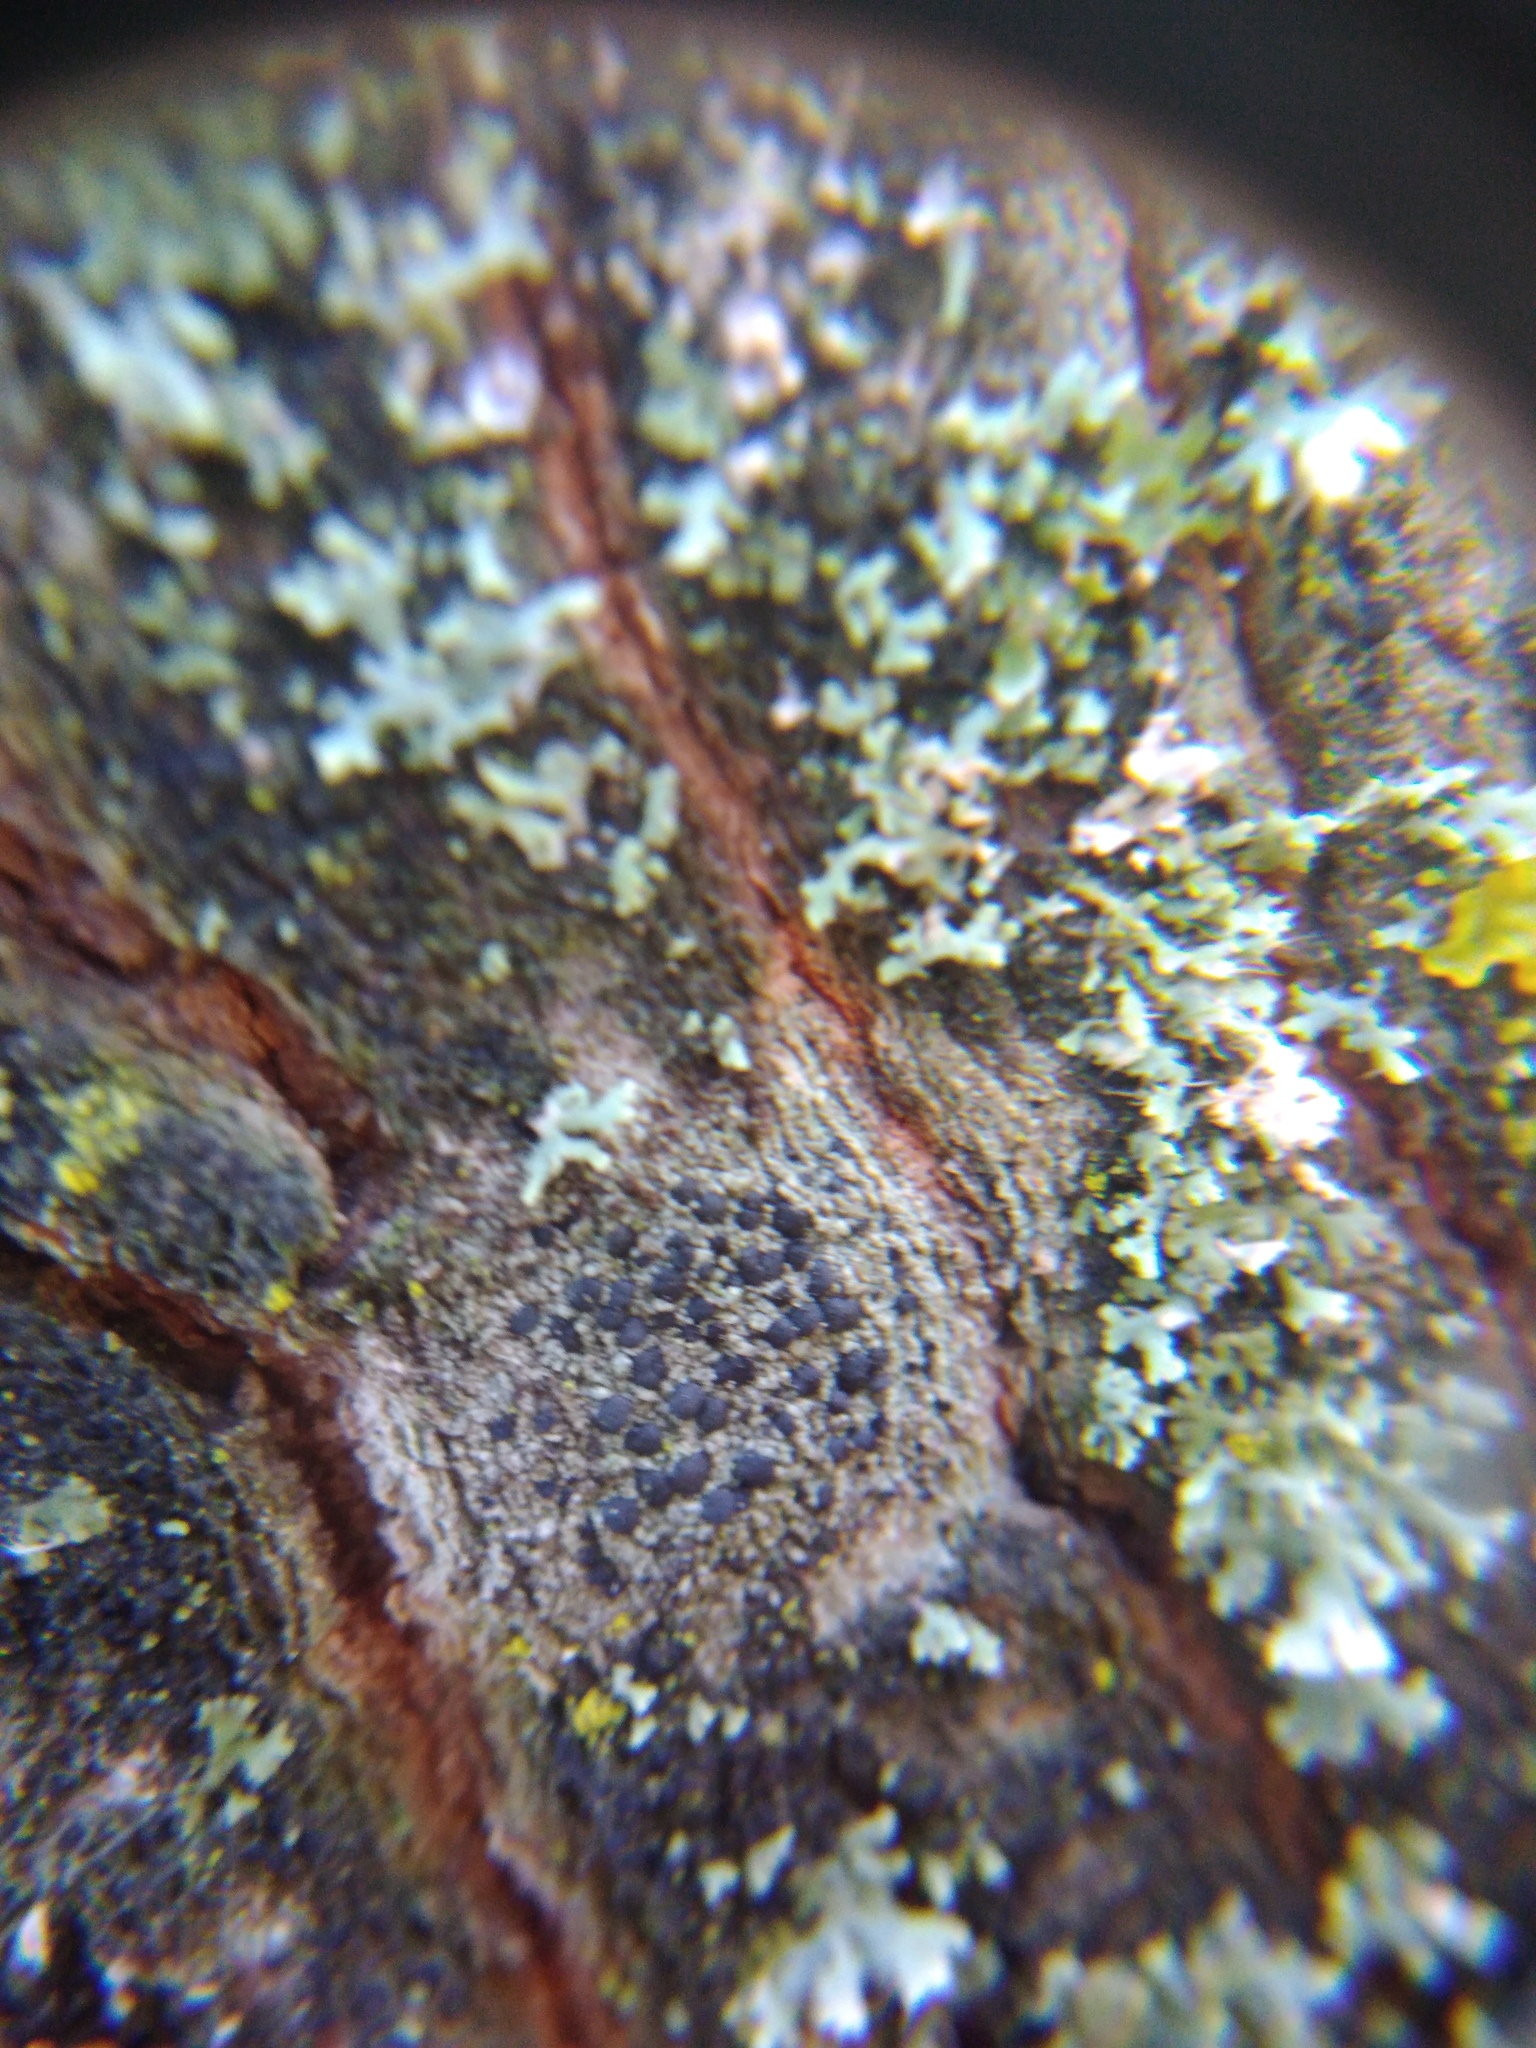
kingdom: Fungi
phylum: Ascomycota
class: Lecanoromycetes
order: Lecanorales
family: Lecanoraceae
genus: Lecidella
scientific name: Lecidella elaeochroma
